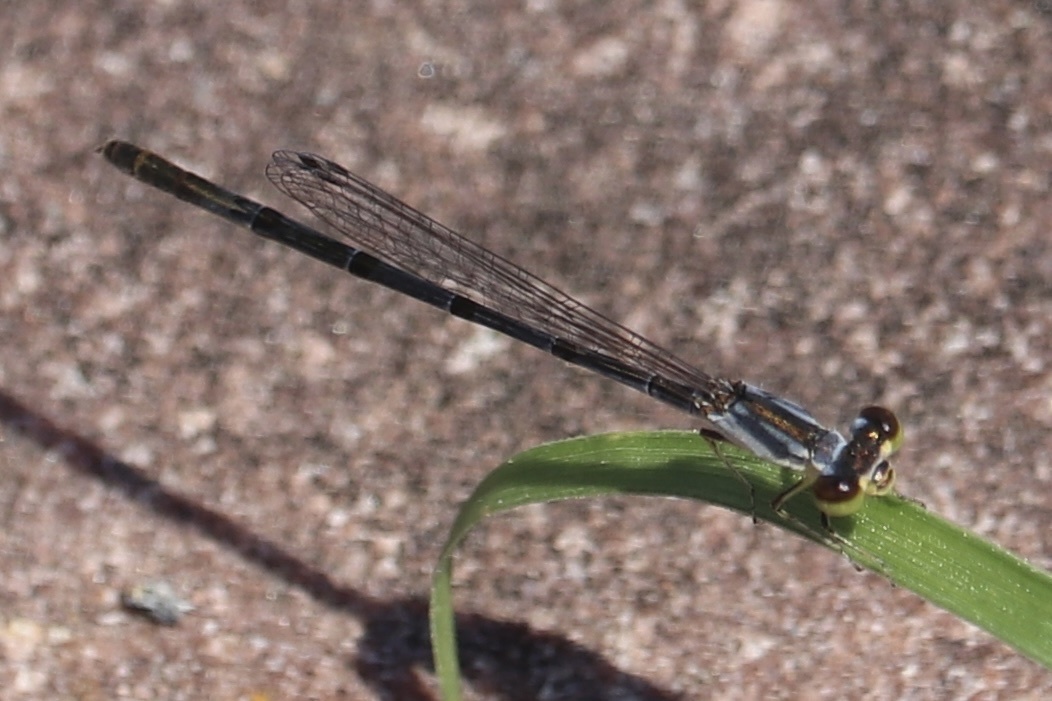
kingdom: Animalia
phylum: Arthropoda
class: Insecta
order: Odonata
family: Coenagrionidae
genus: Ischnura
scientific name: Ischnura posita
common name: Fragile forktail
